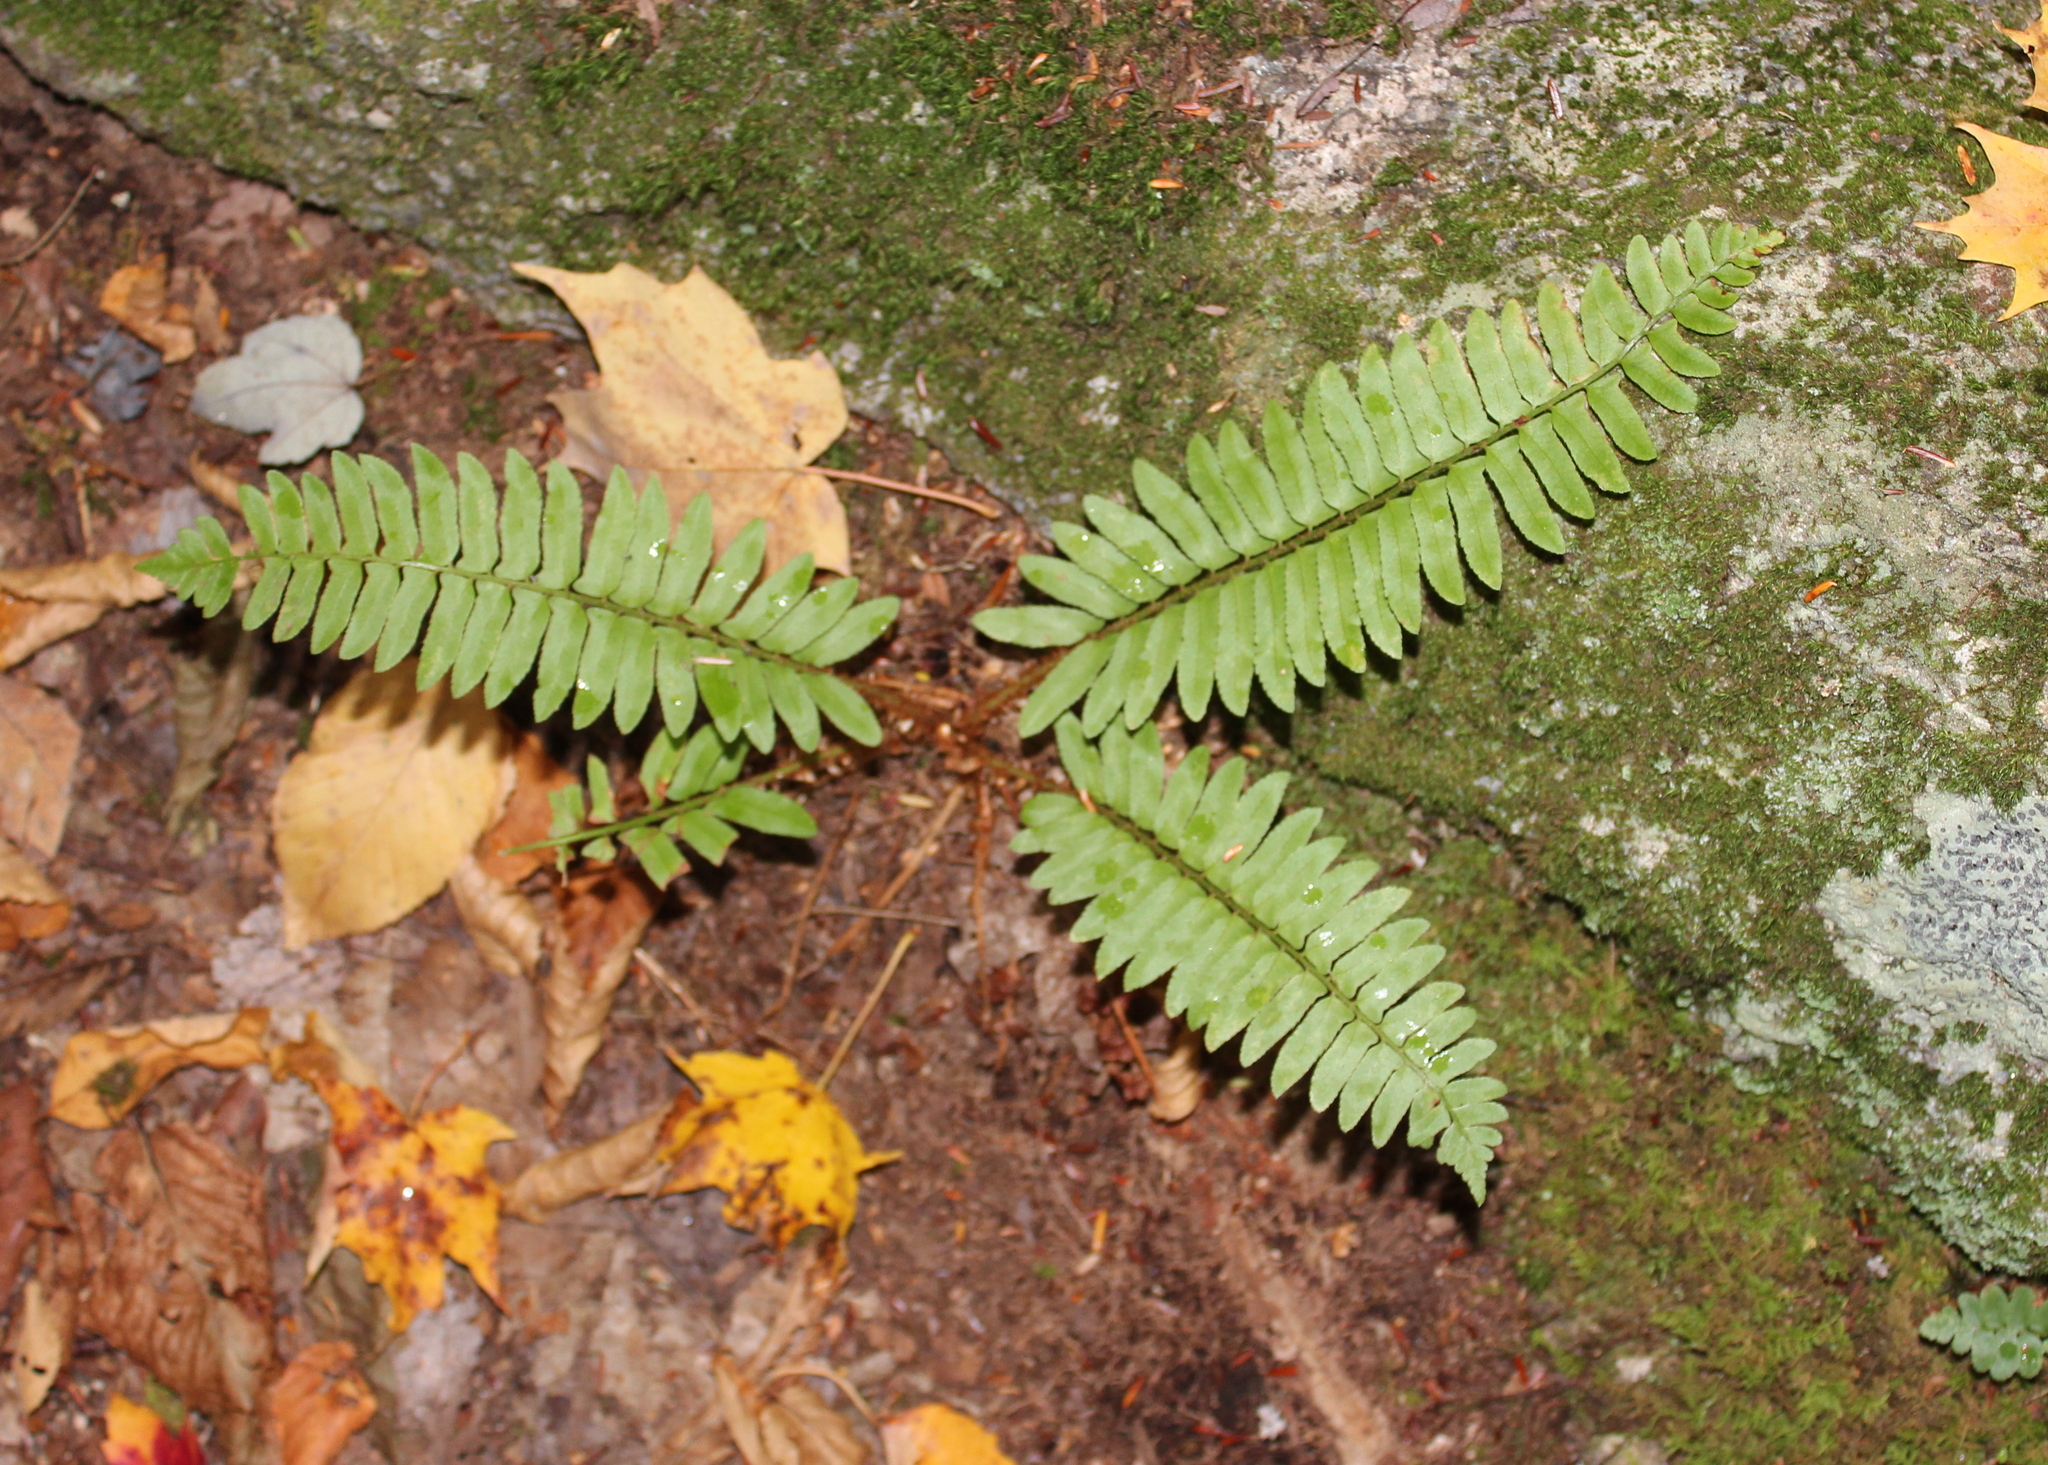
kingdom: Plantae
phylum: Tracheophyta
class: Polypodiopsida
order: Polypodiales
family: Dryopteridaceae
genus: Polystichum
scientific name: Polystichum acrostichoides
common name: Christmas fern
